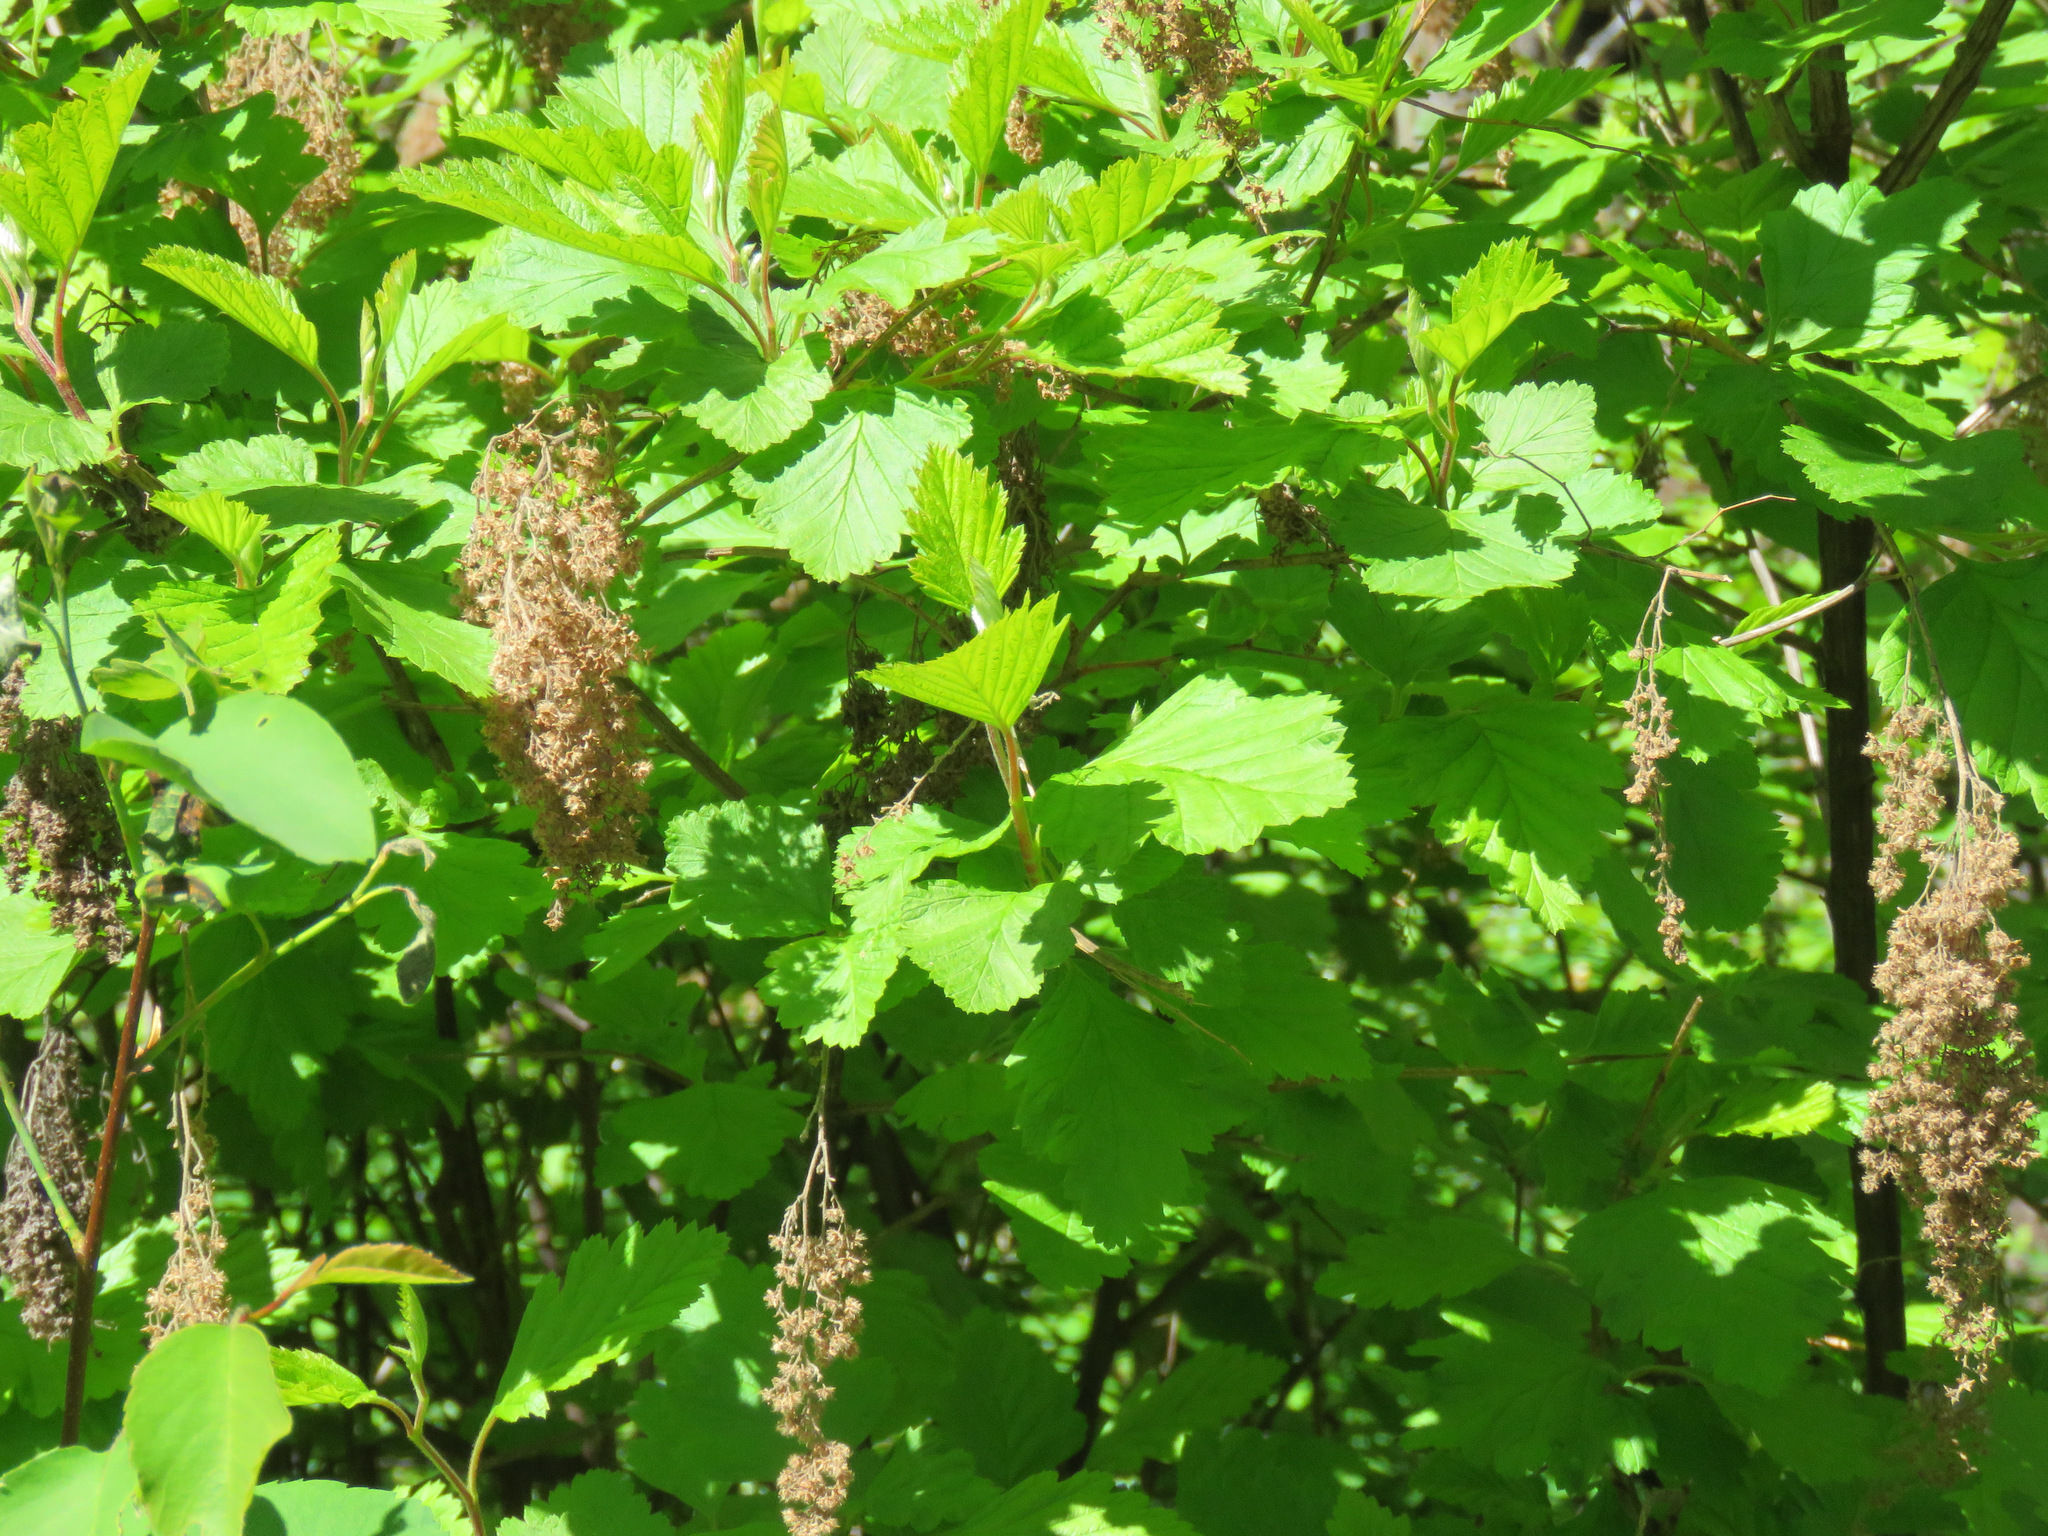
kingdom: Plantae
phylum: Tracheophyta
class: Magnoliopsida
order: Rosales
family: Rosaceae
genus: Holodiscus
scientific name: Holodiscus discolor
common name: Oceanspray
